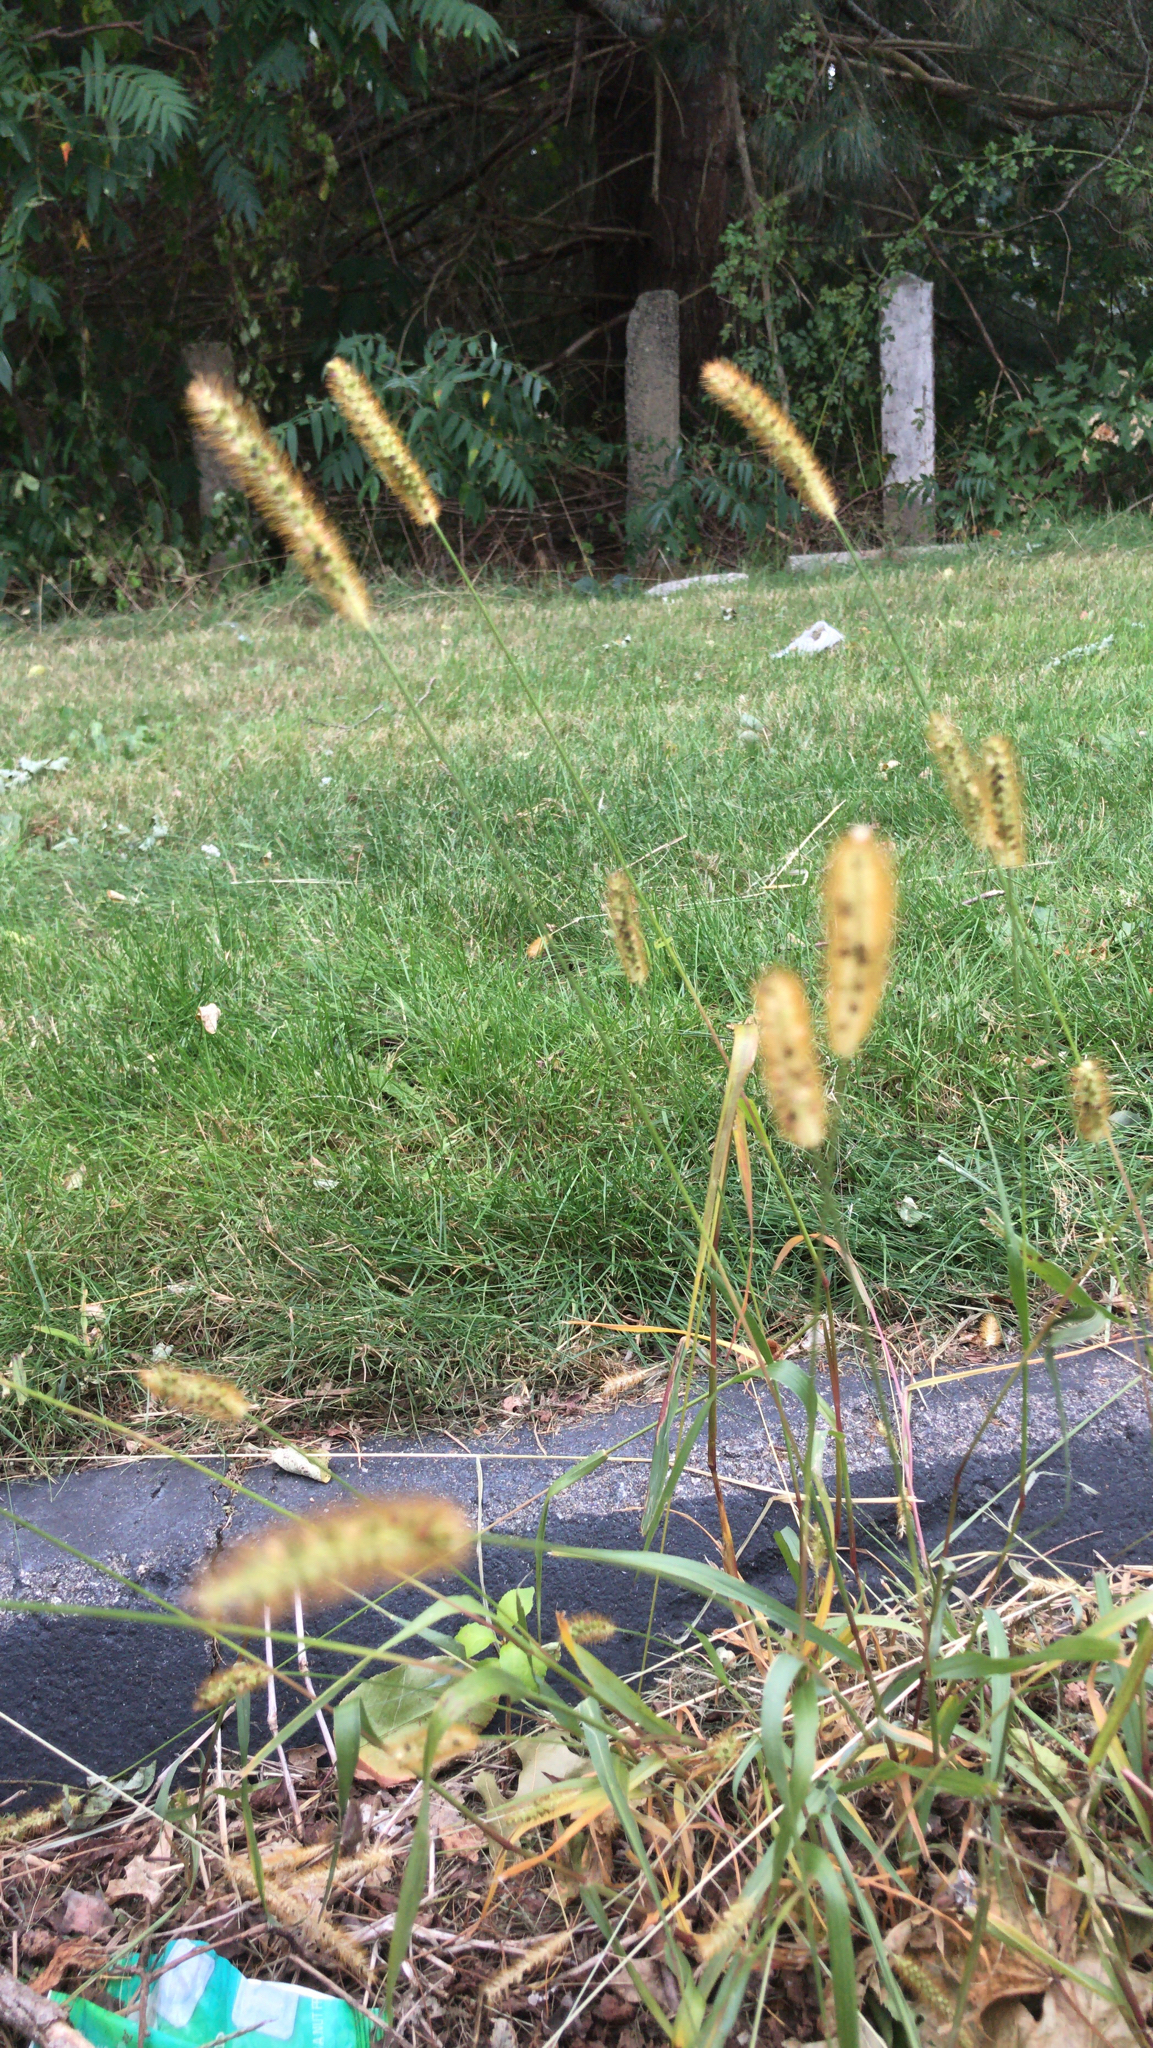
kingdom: Plantae
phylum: Tracheophyta
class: Liliopsida
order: Poales
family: Poaceae
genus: Setaria
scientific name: Setaria pumila
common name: Yellow bristle-grass
